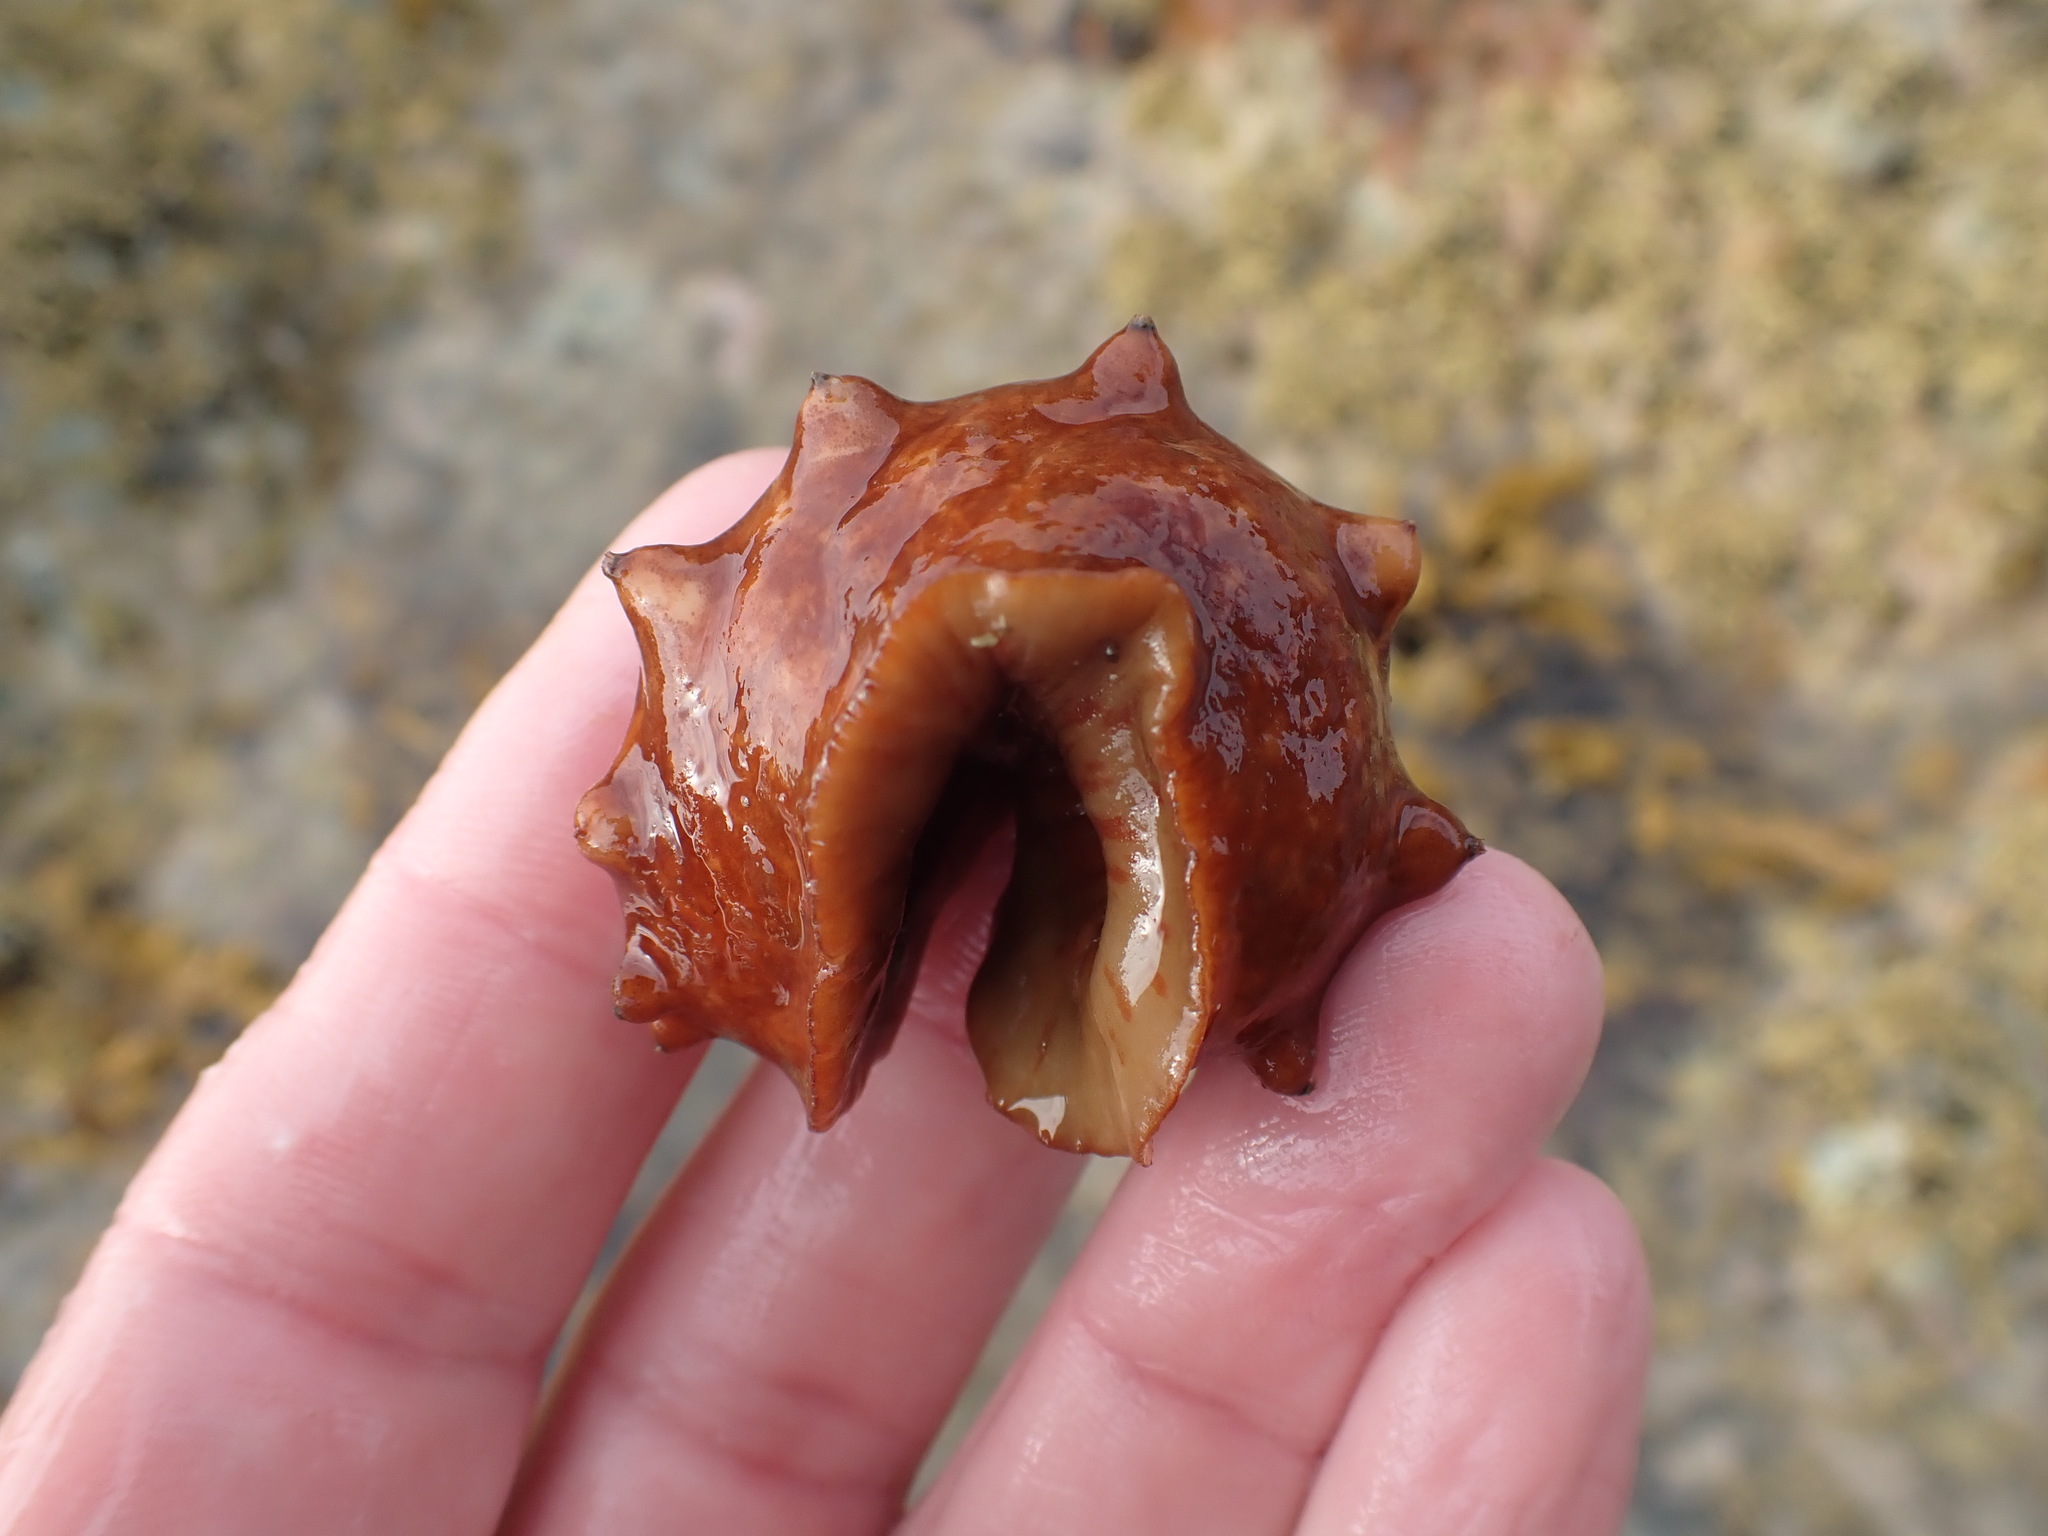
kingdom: Animalia
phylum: Mollusca
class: Polyplacophora
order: Chitonida
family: Acanthochitonidae
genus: Cryptoconchus
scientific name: Cryptoconchus porosus
